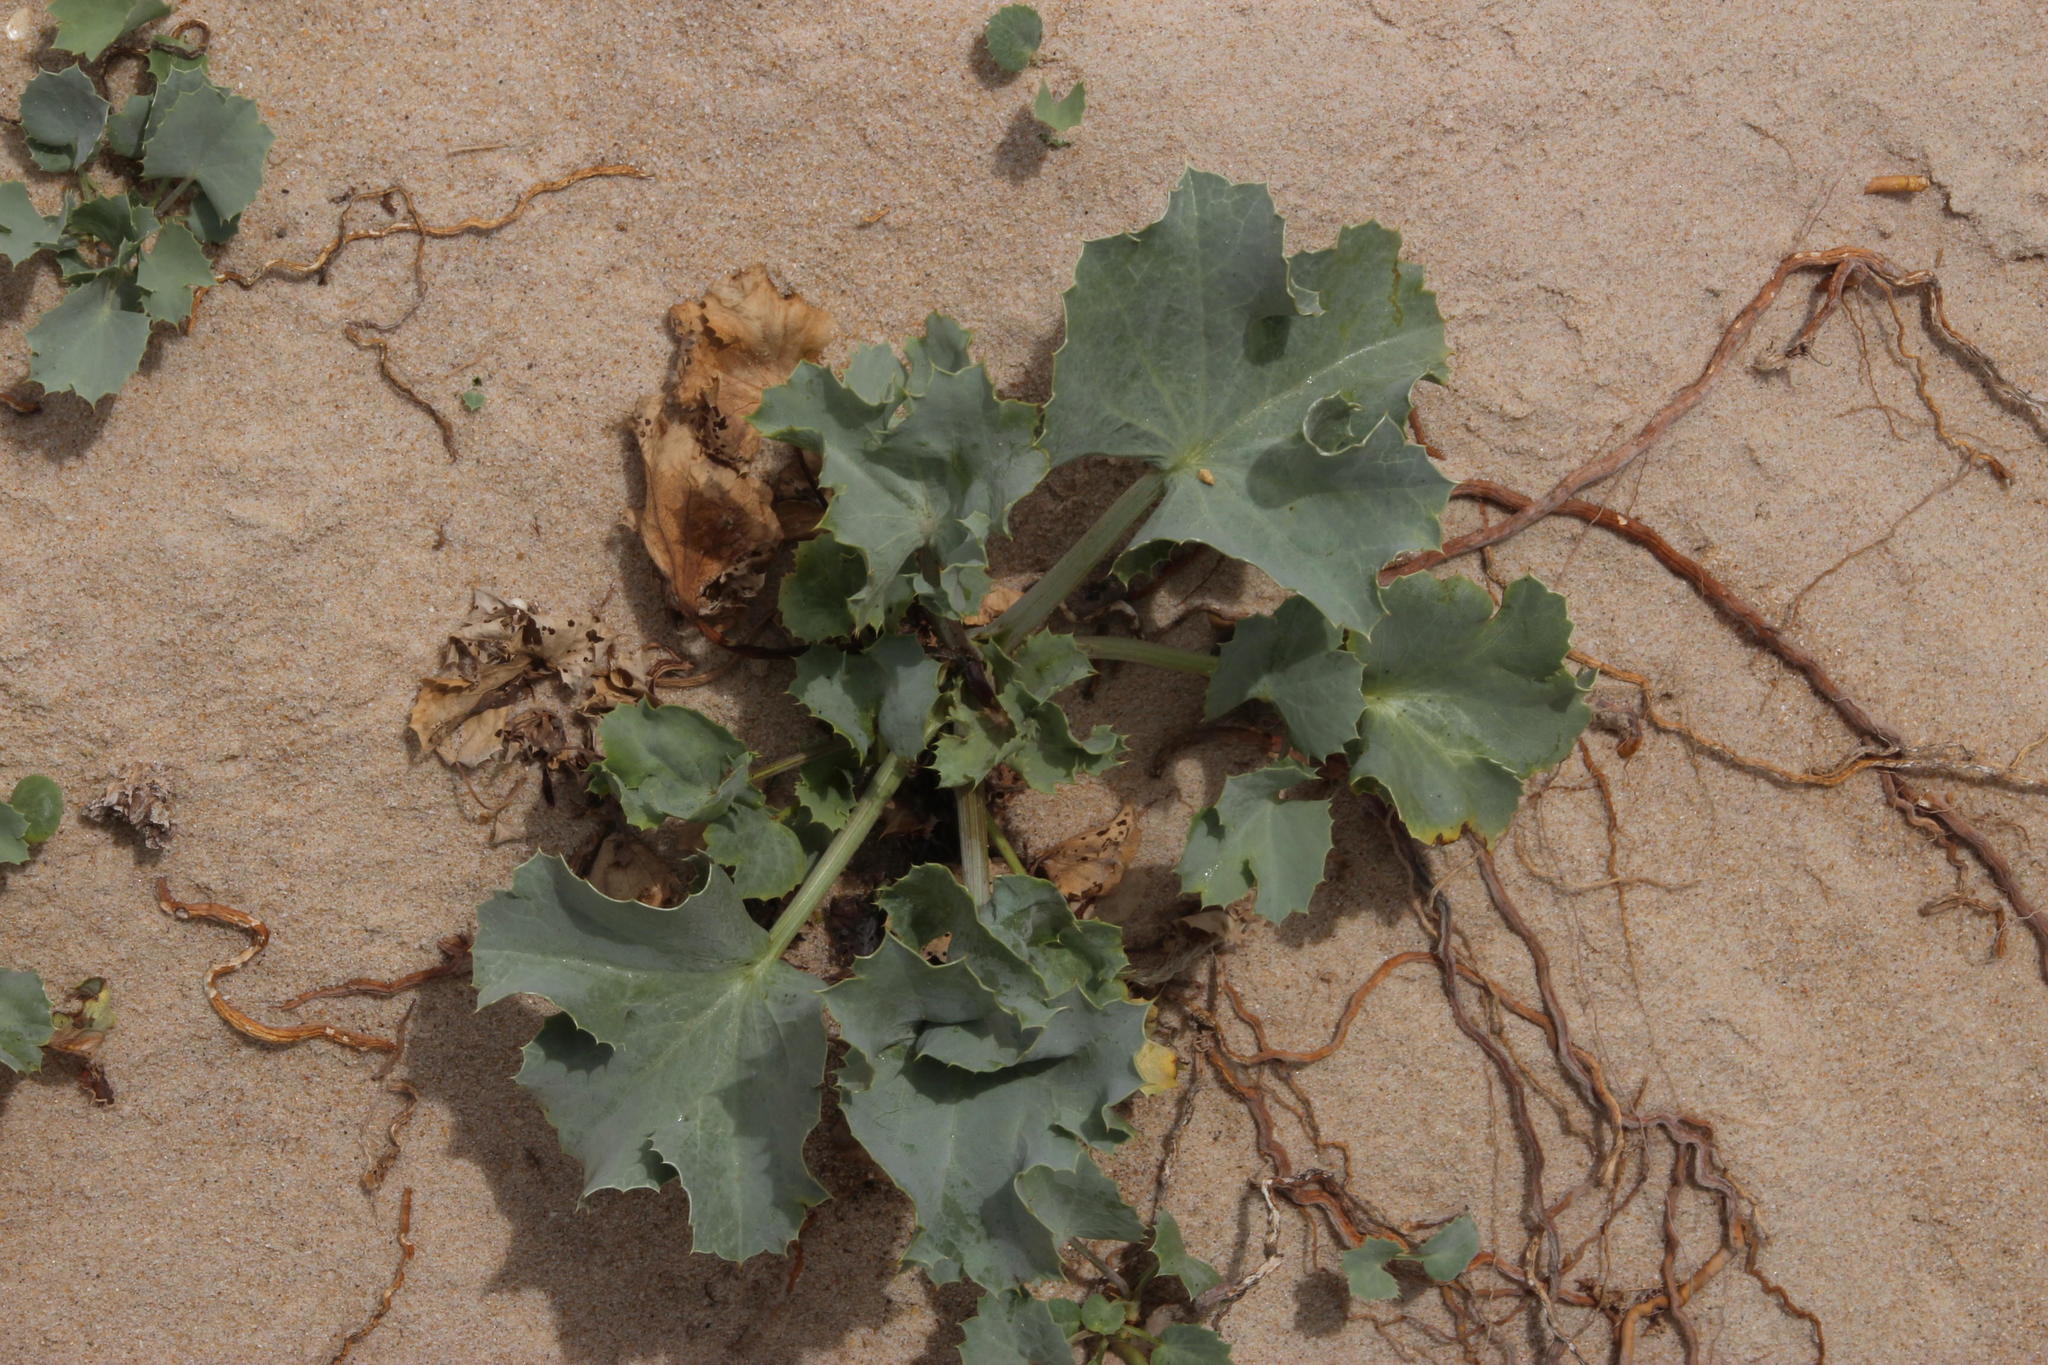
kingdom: Plantae
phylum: Tracheophyta
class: Magnoliopsida
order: Apiales
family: Apiaceae
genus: Eryngium
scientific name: Eryngium maritimum
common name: Sea-holly
